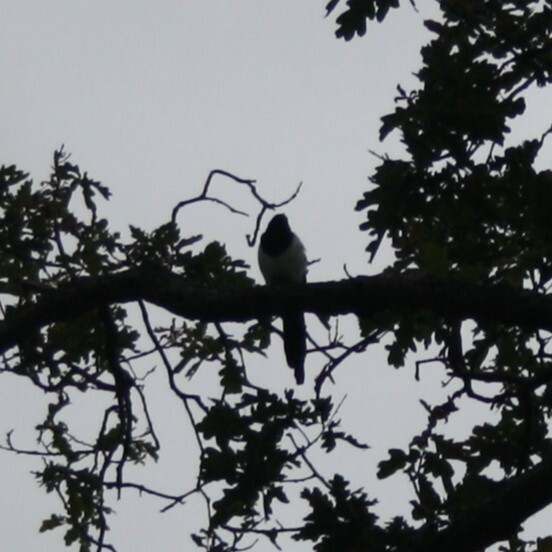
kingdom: Animalia
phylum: Chordata
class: Aves
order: Passeriformes
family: Corvidae
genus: Pica
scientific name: Pica pica
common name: Eurasian magpie
